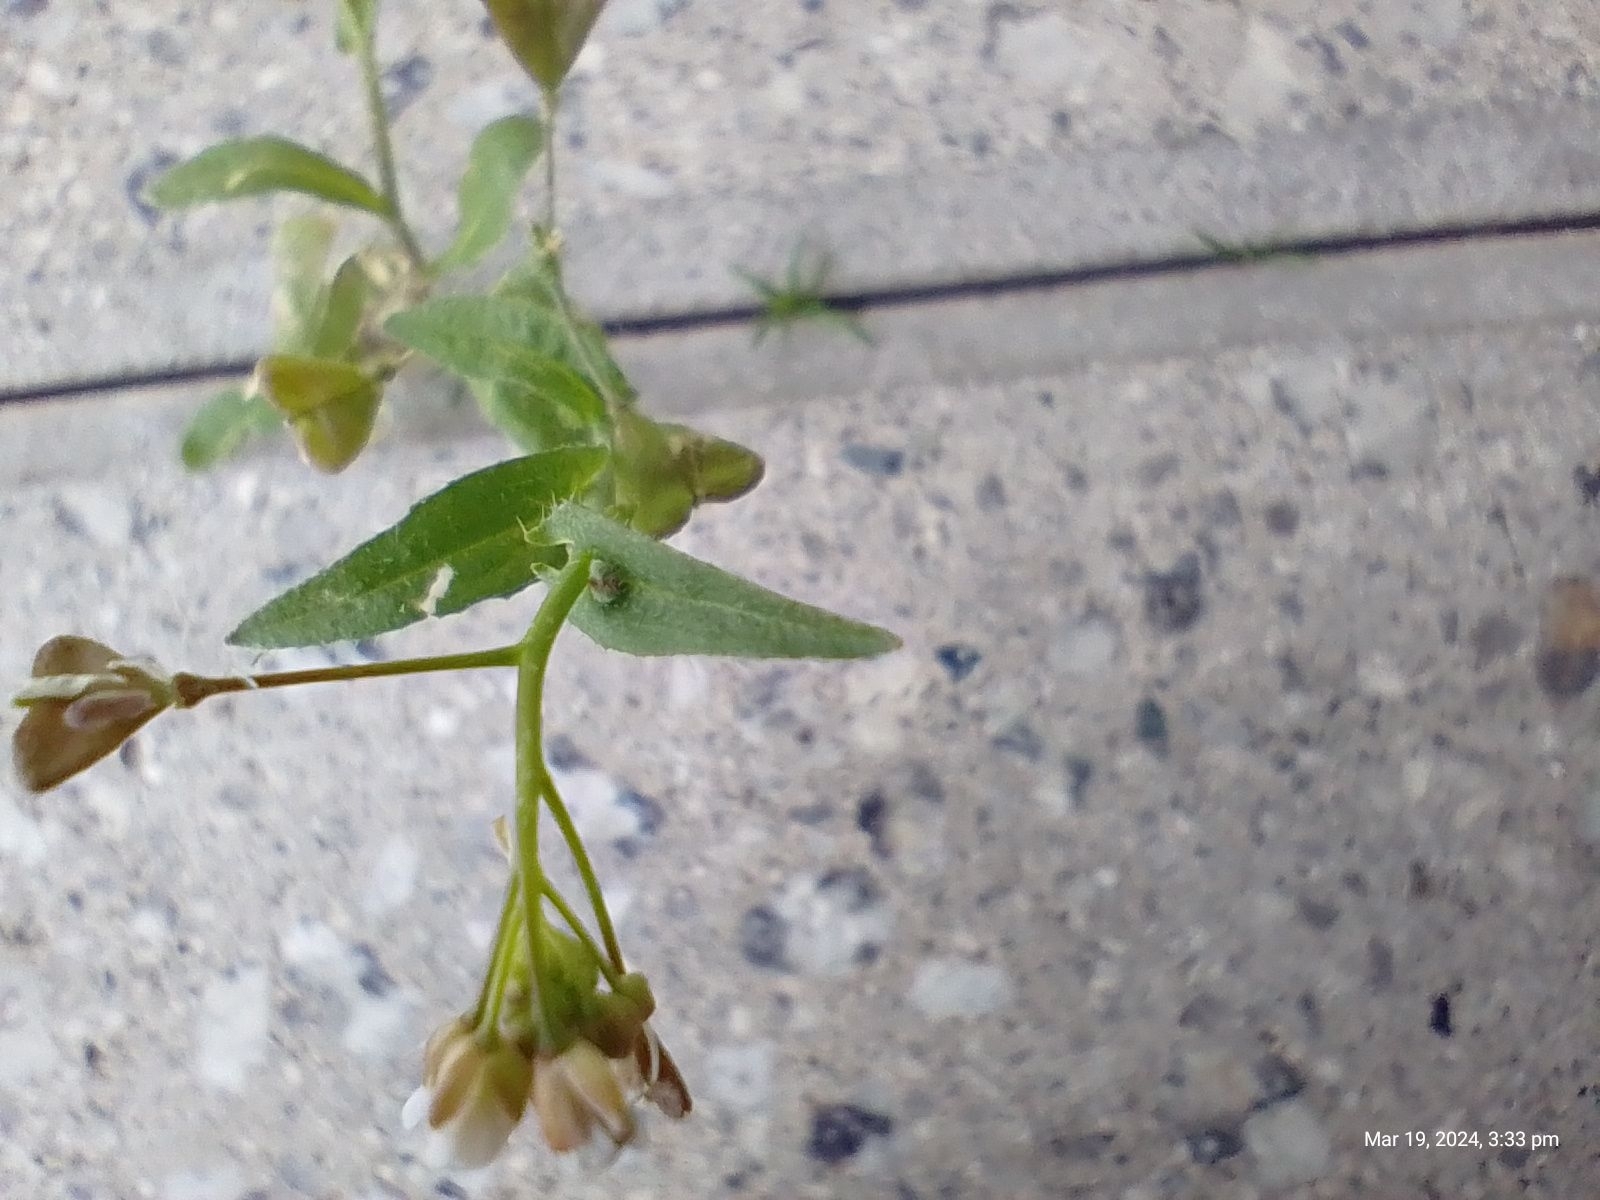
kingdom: Plantae
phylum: Tracheophyta
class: Magnoliopsida
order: Brassicales
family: Brassicaceae
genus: Capsella
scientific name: Capsella bursa-pastoris
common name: Shepherd's purse
